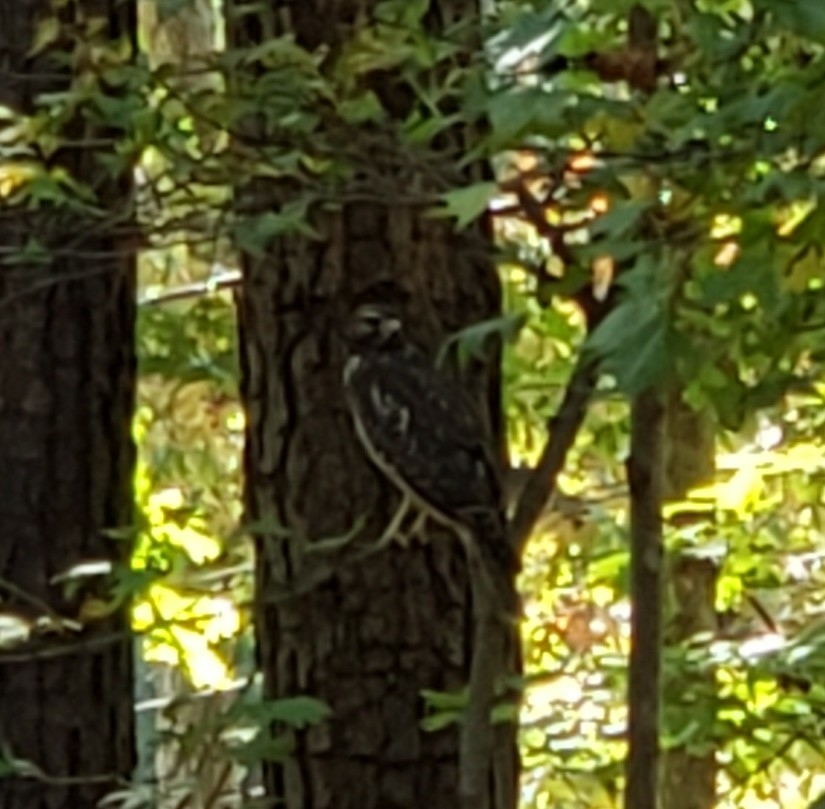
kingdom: Animalia
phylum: Chordata
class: Aves
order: Accipitriformes
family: Accipitridae
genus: Buteo
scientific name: Buteo lineatus
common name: Red-shouldered hawk
